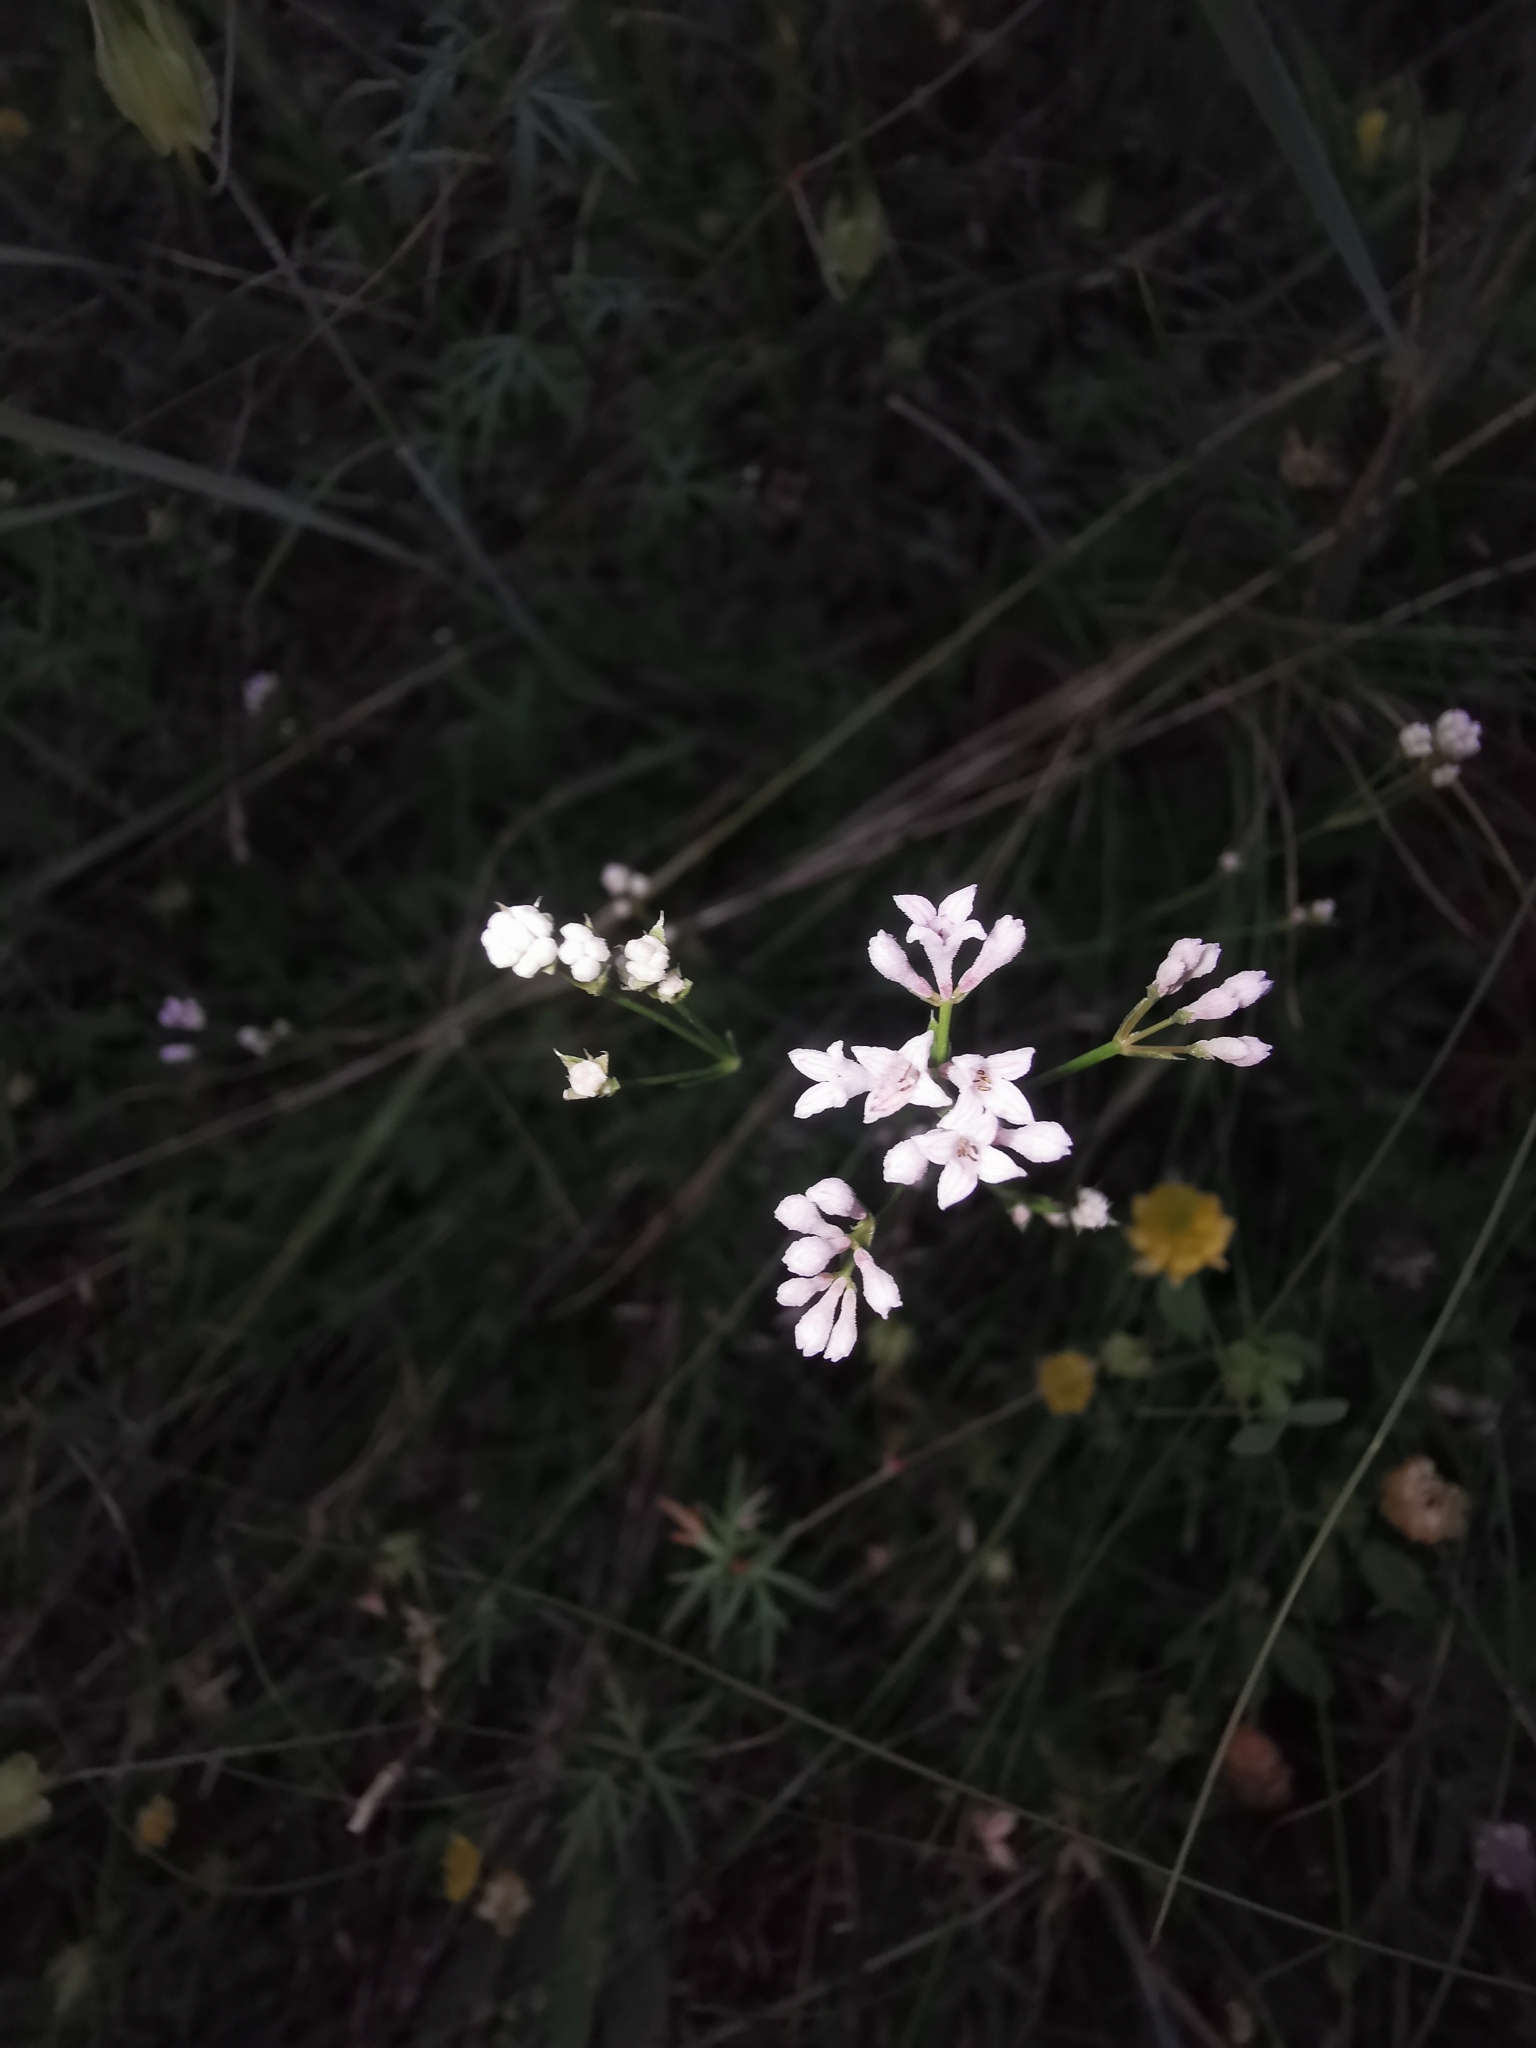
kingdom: Plantae
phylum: Tracheophyta
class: Magnoliopsida
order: Gentianales
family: Rubiaceae
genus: Cynanchica
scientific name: Cynanchica pyrenaica
